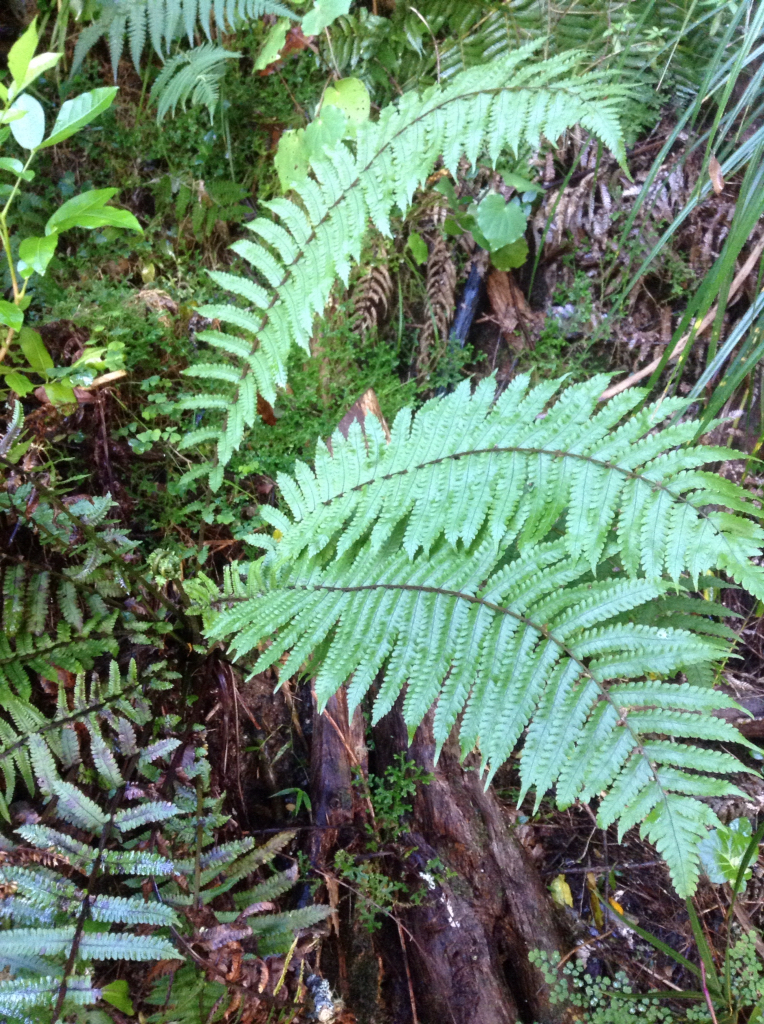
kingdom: Plantae
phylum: Tracheophyta
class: Polypodiopsida
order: Polypodiales
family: Thelypteridaceae
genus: Pakau
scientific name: Pakau pennigera
